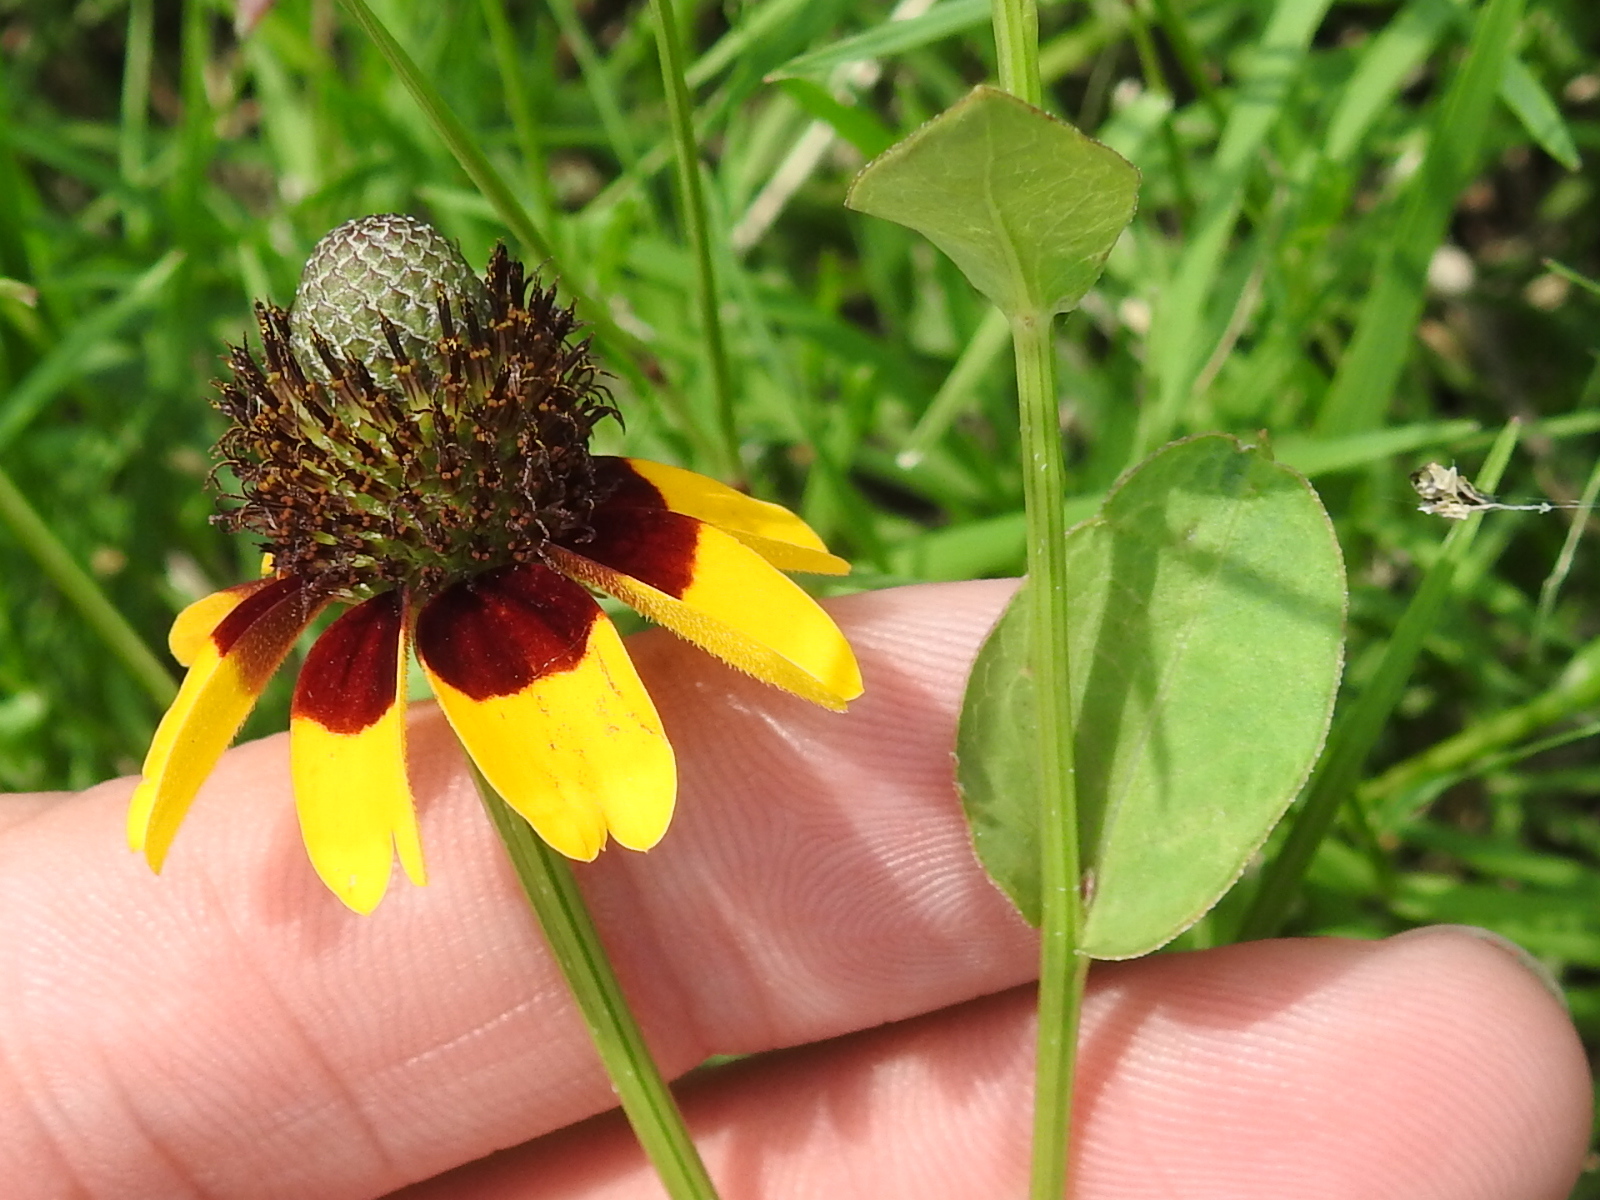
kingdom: Plantae
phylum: Tracheophyta
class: Magnoliopsida
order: Asterales
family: Asteraceae
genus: Rudbeckia
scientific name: Rudbeckia amplexicaulis
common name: Clasping-leaf coneflower
